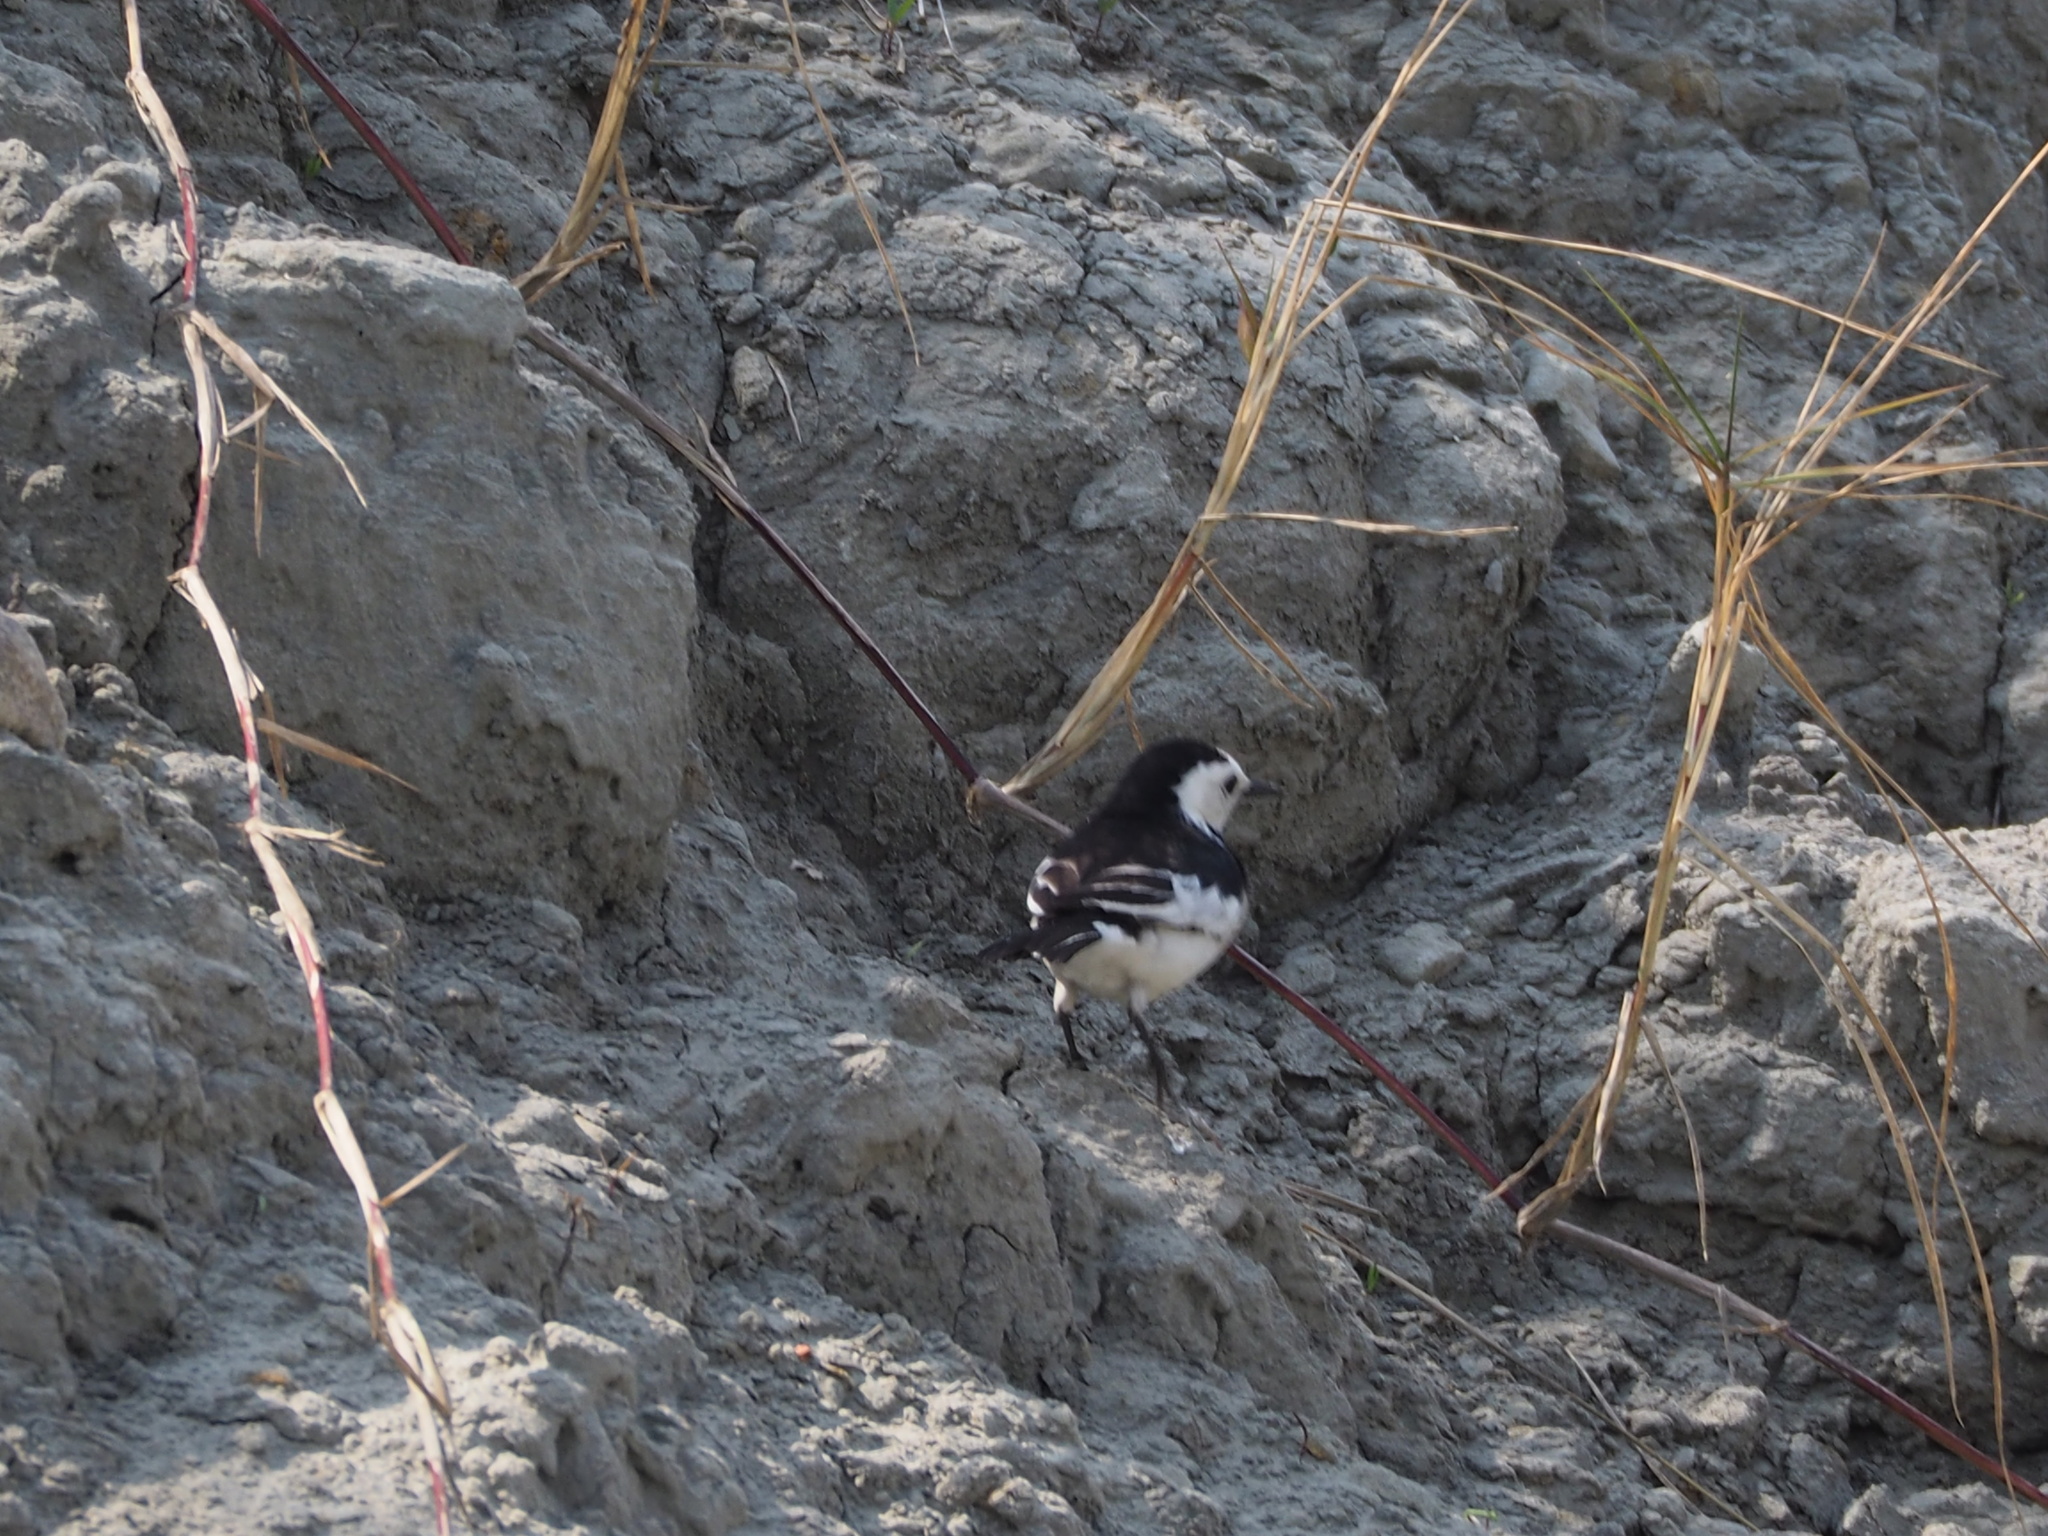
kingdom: Animalia
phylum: Chordata
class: Aves
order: Passeriformes
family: Motacillidae
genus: Motacilla
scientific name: Motacilla alba
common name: White wagtail
